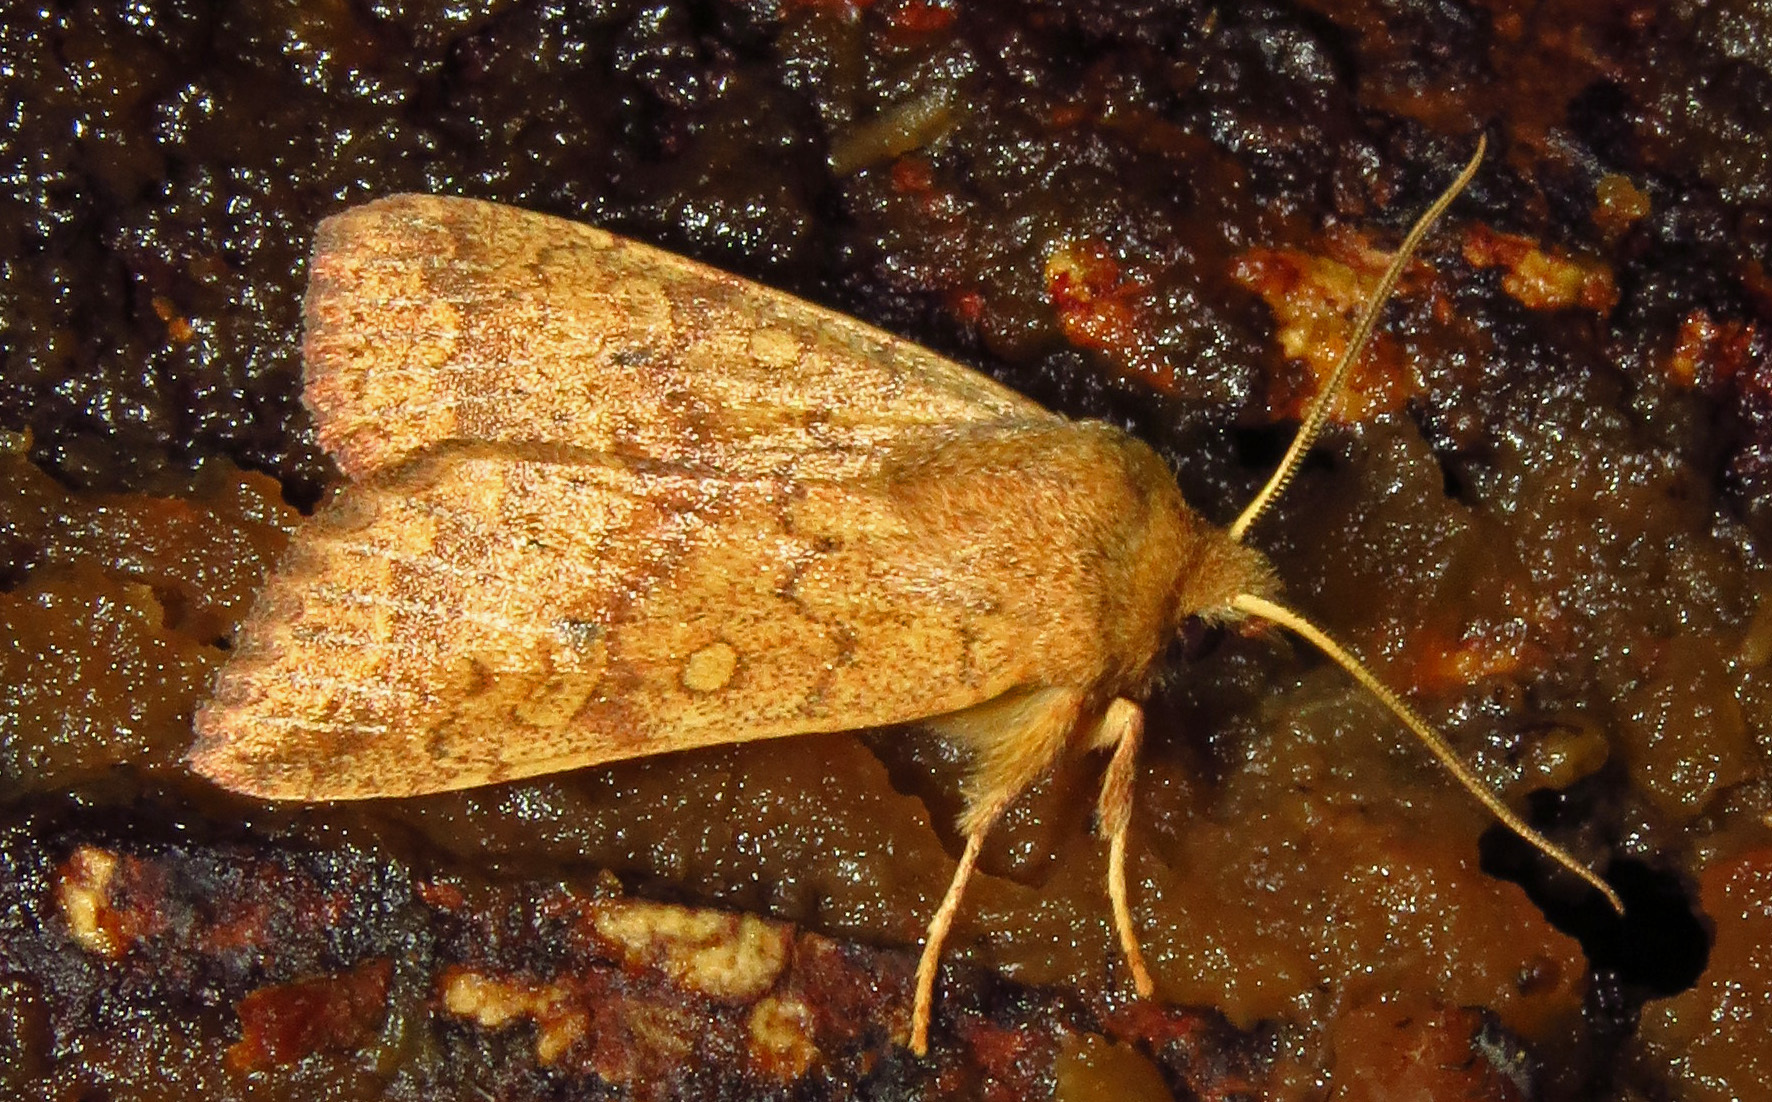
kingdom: Animalia
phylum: Arthropoda
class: Insecta
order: Lepidoptera
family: Noctuidae
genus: Agrochola
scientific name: Agrochola bicolorago
